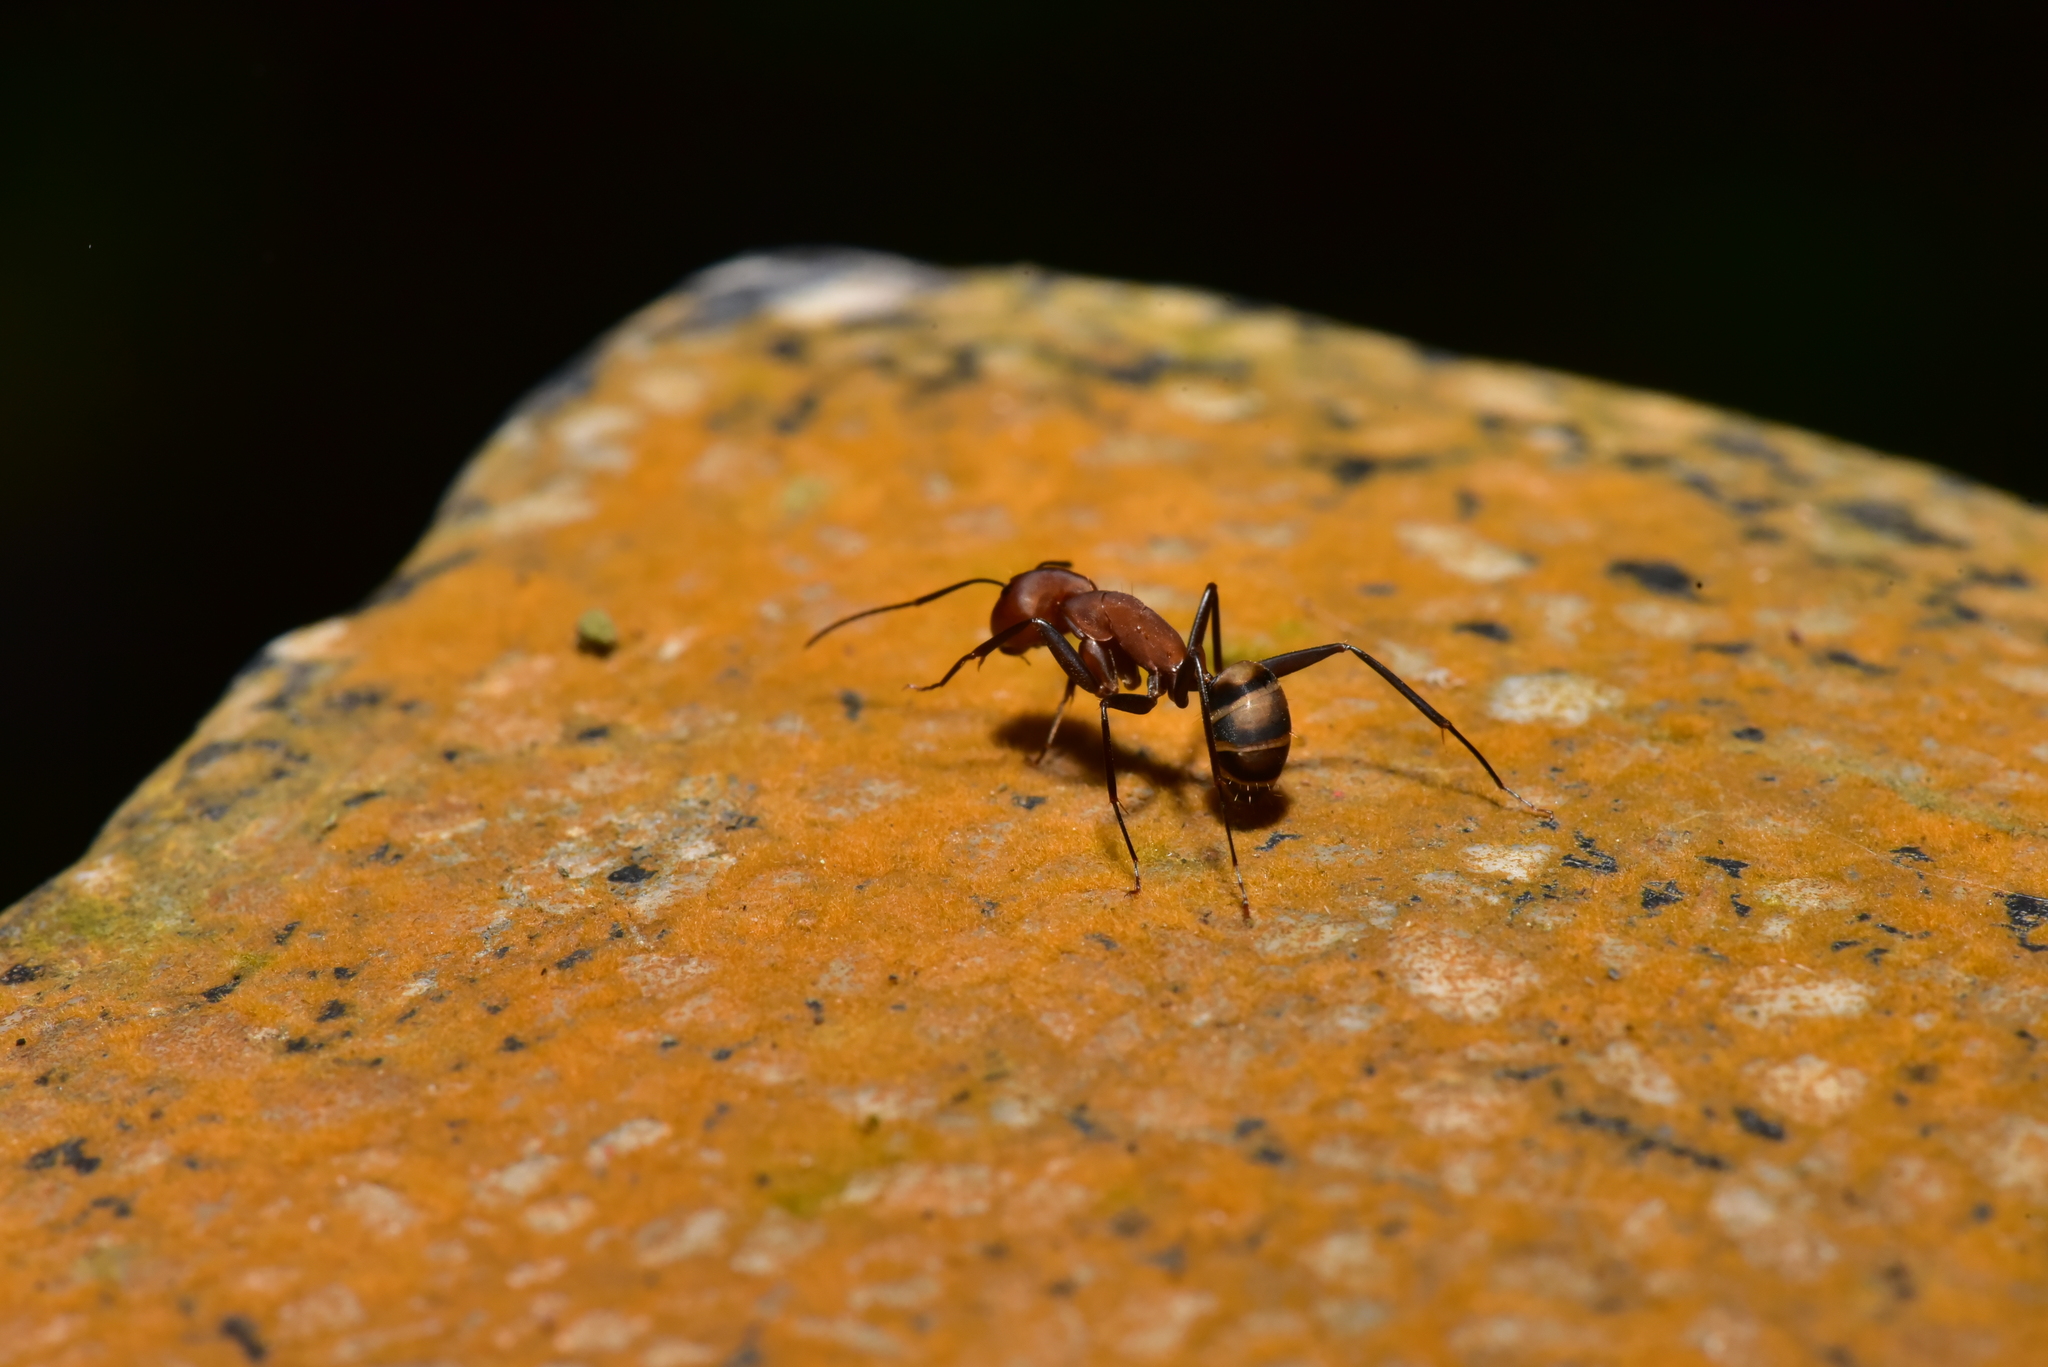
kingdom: Animalia
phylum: Arthropoda
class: Insecta
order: Hymenoptera
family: Formicidae
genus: Camponotus
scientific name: Camponotus habereri
